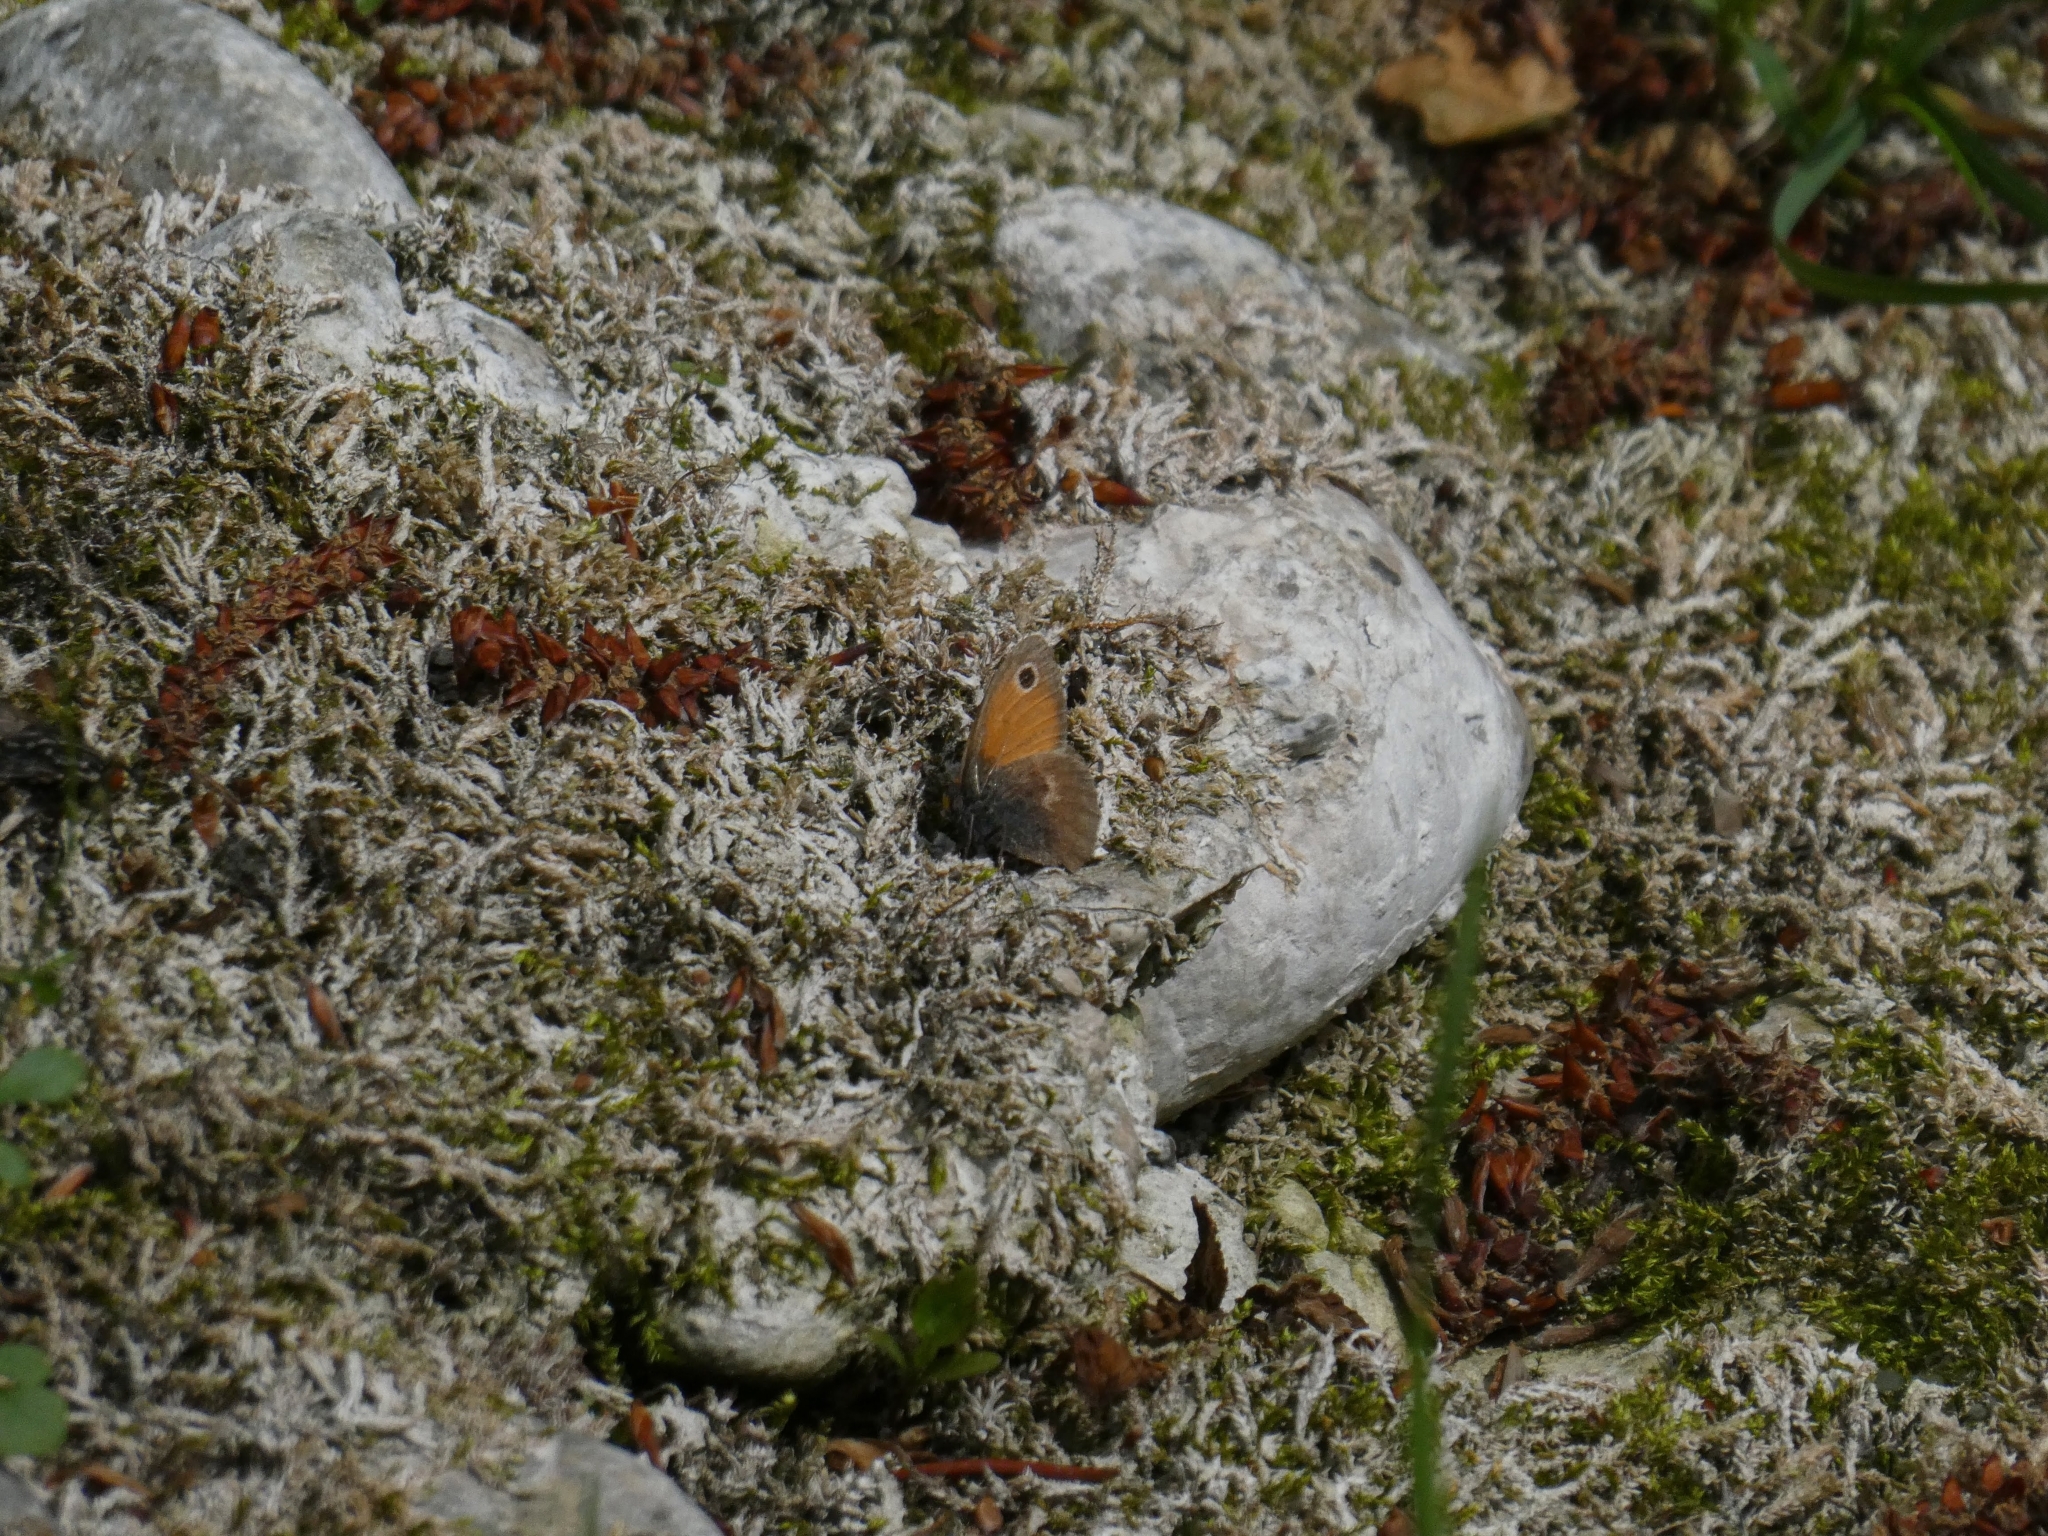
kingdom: Animalia
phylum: Arthropoda
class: Insecta
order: Lepidoptera
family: Nymphalidae
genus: Coenonympha
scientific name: Coenonympha pamphilus
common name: Small heath
